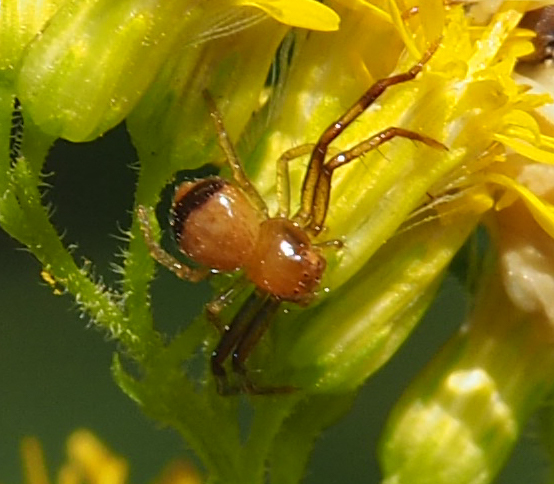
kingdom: Animalia
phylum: Arthropoda
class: Arachnida
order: Araneae
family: Thomisidae
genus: Synema
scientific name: Synema parvulum
